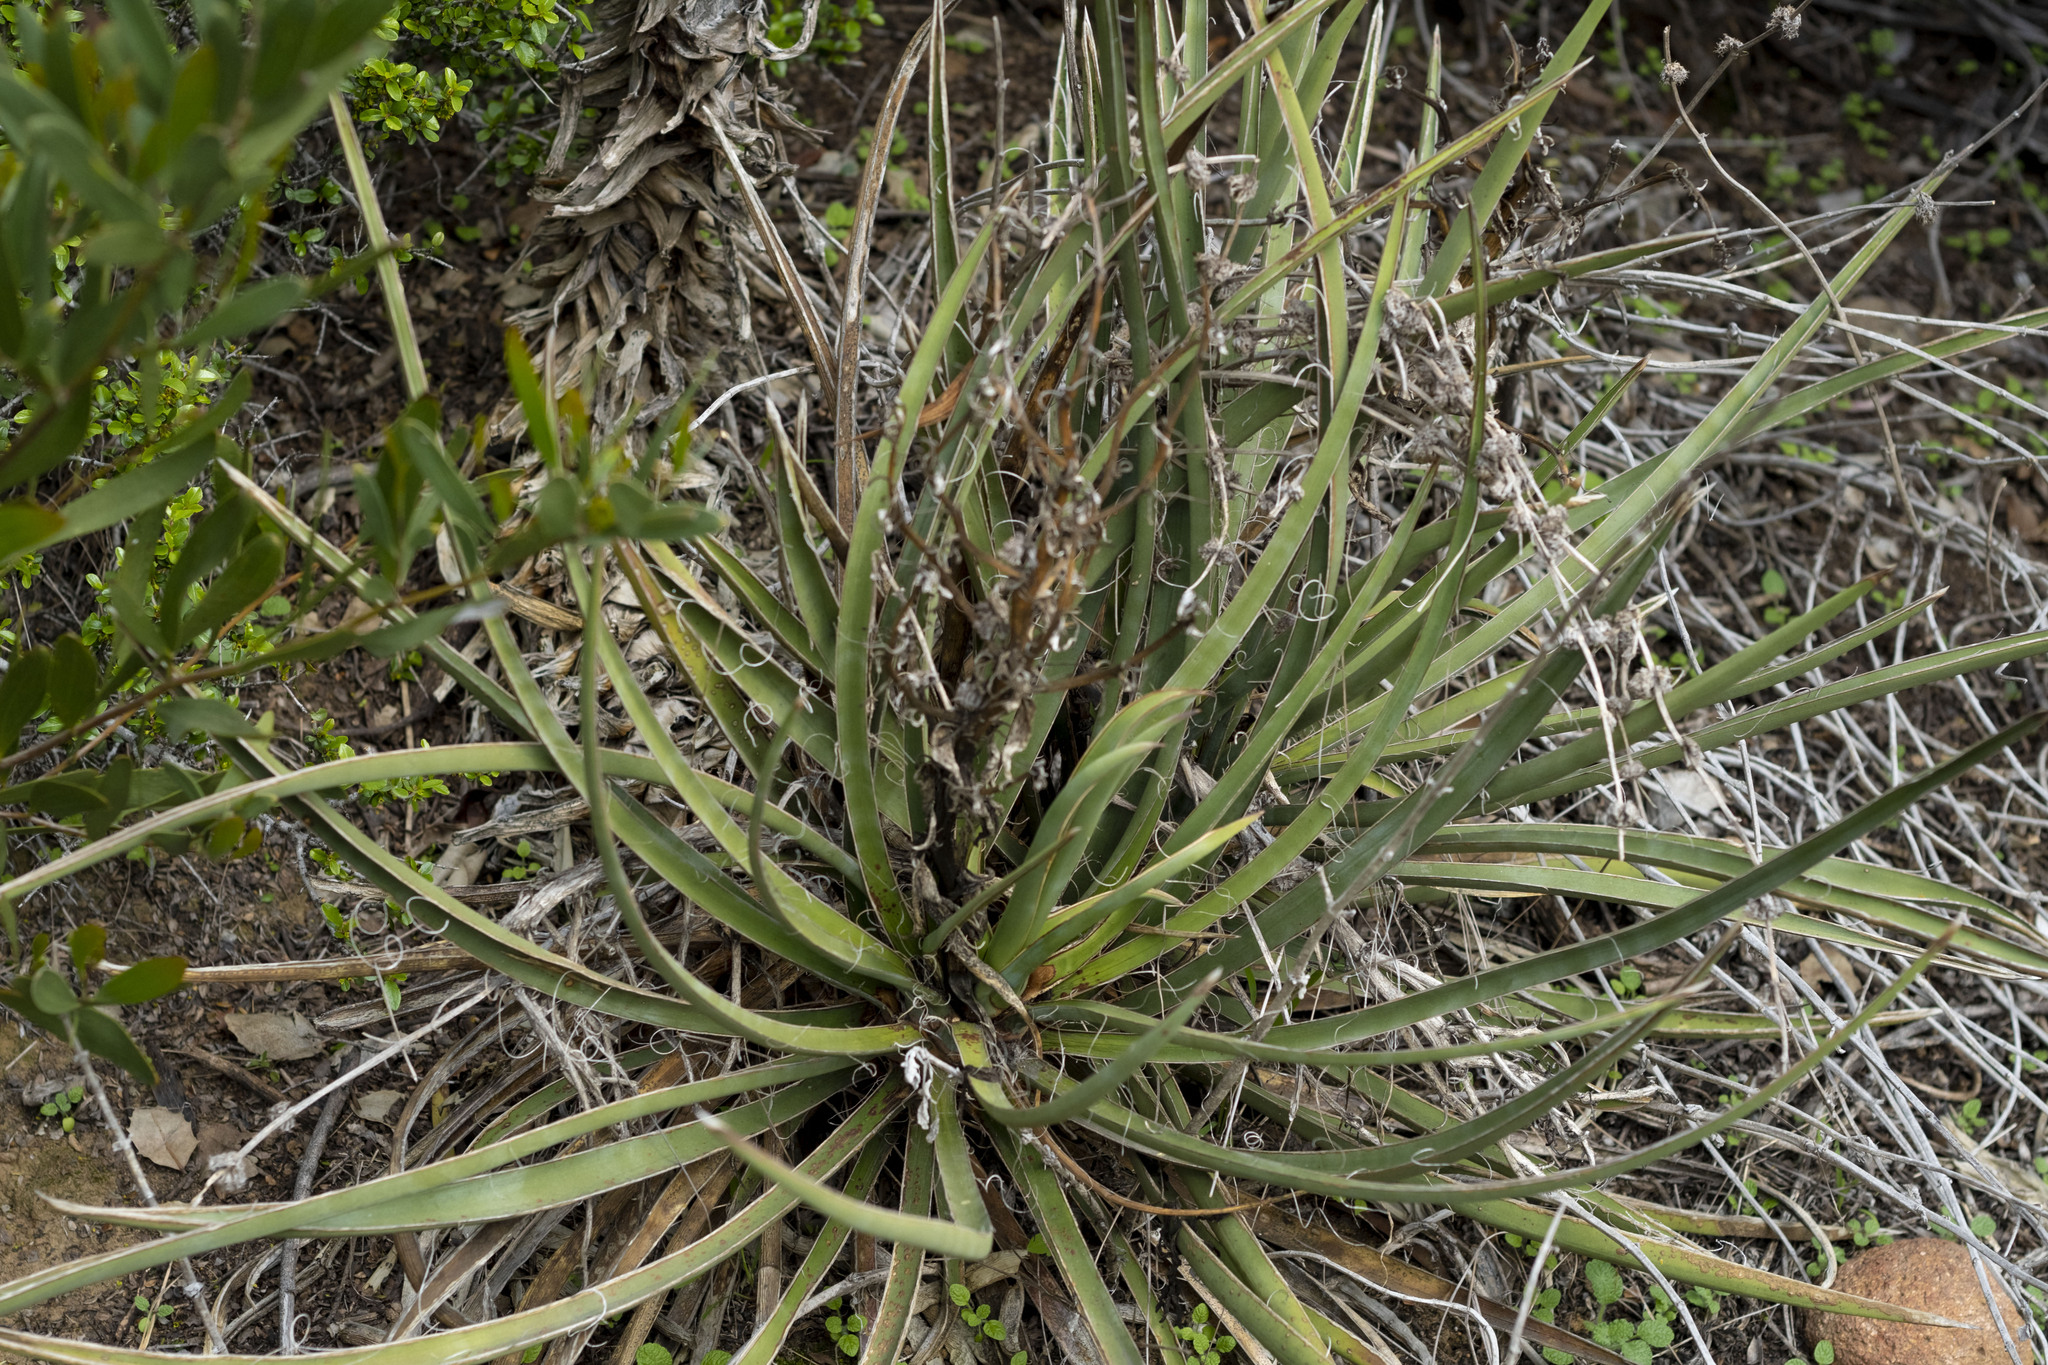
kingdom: Plantae
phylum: Tracheophyta
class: Liliopsida
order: Asparagales
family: Asparagaceae
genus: Yucca
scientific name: Yucca schidigera
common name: Mojave yucca
